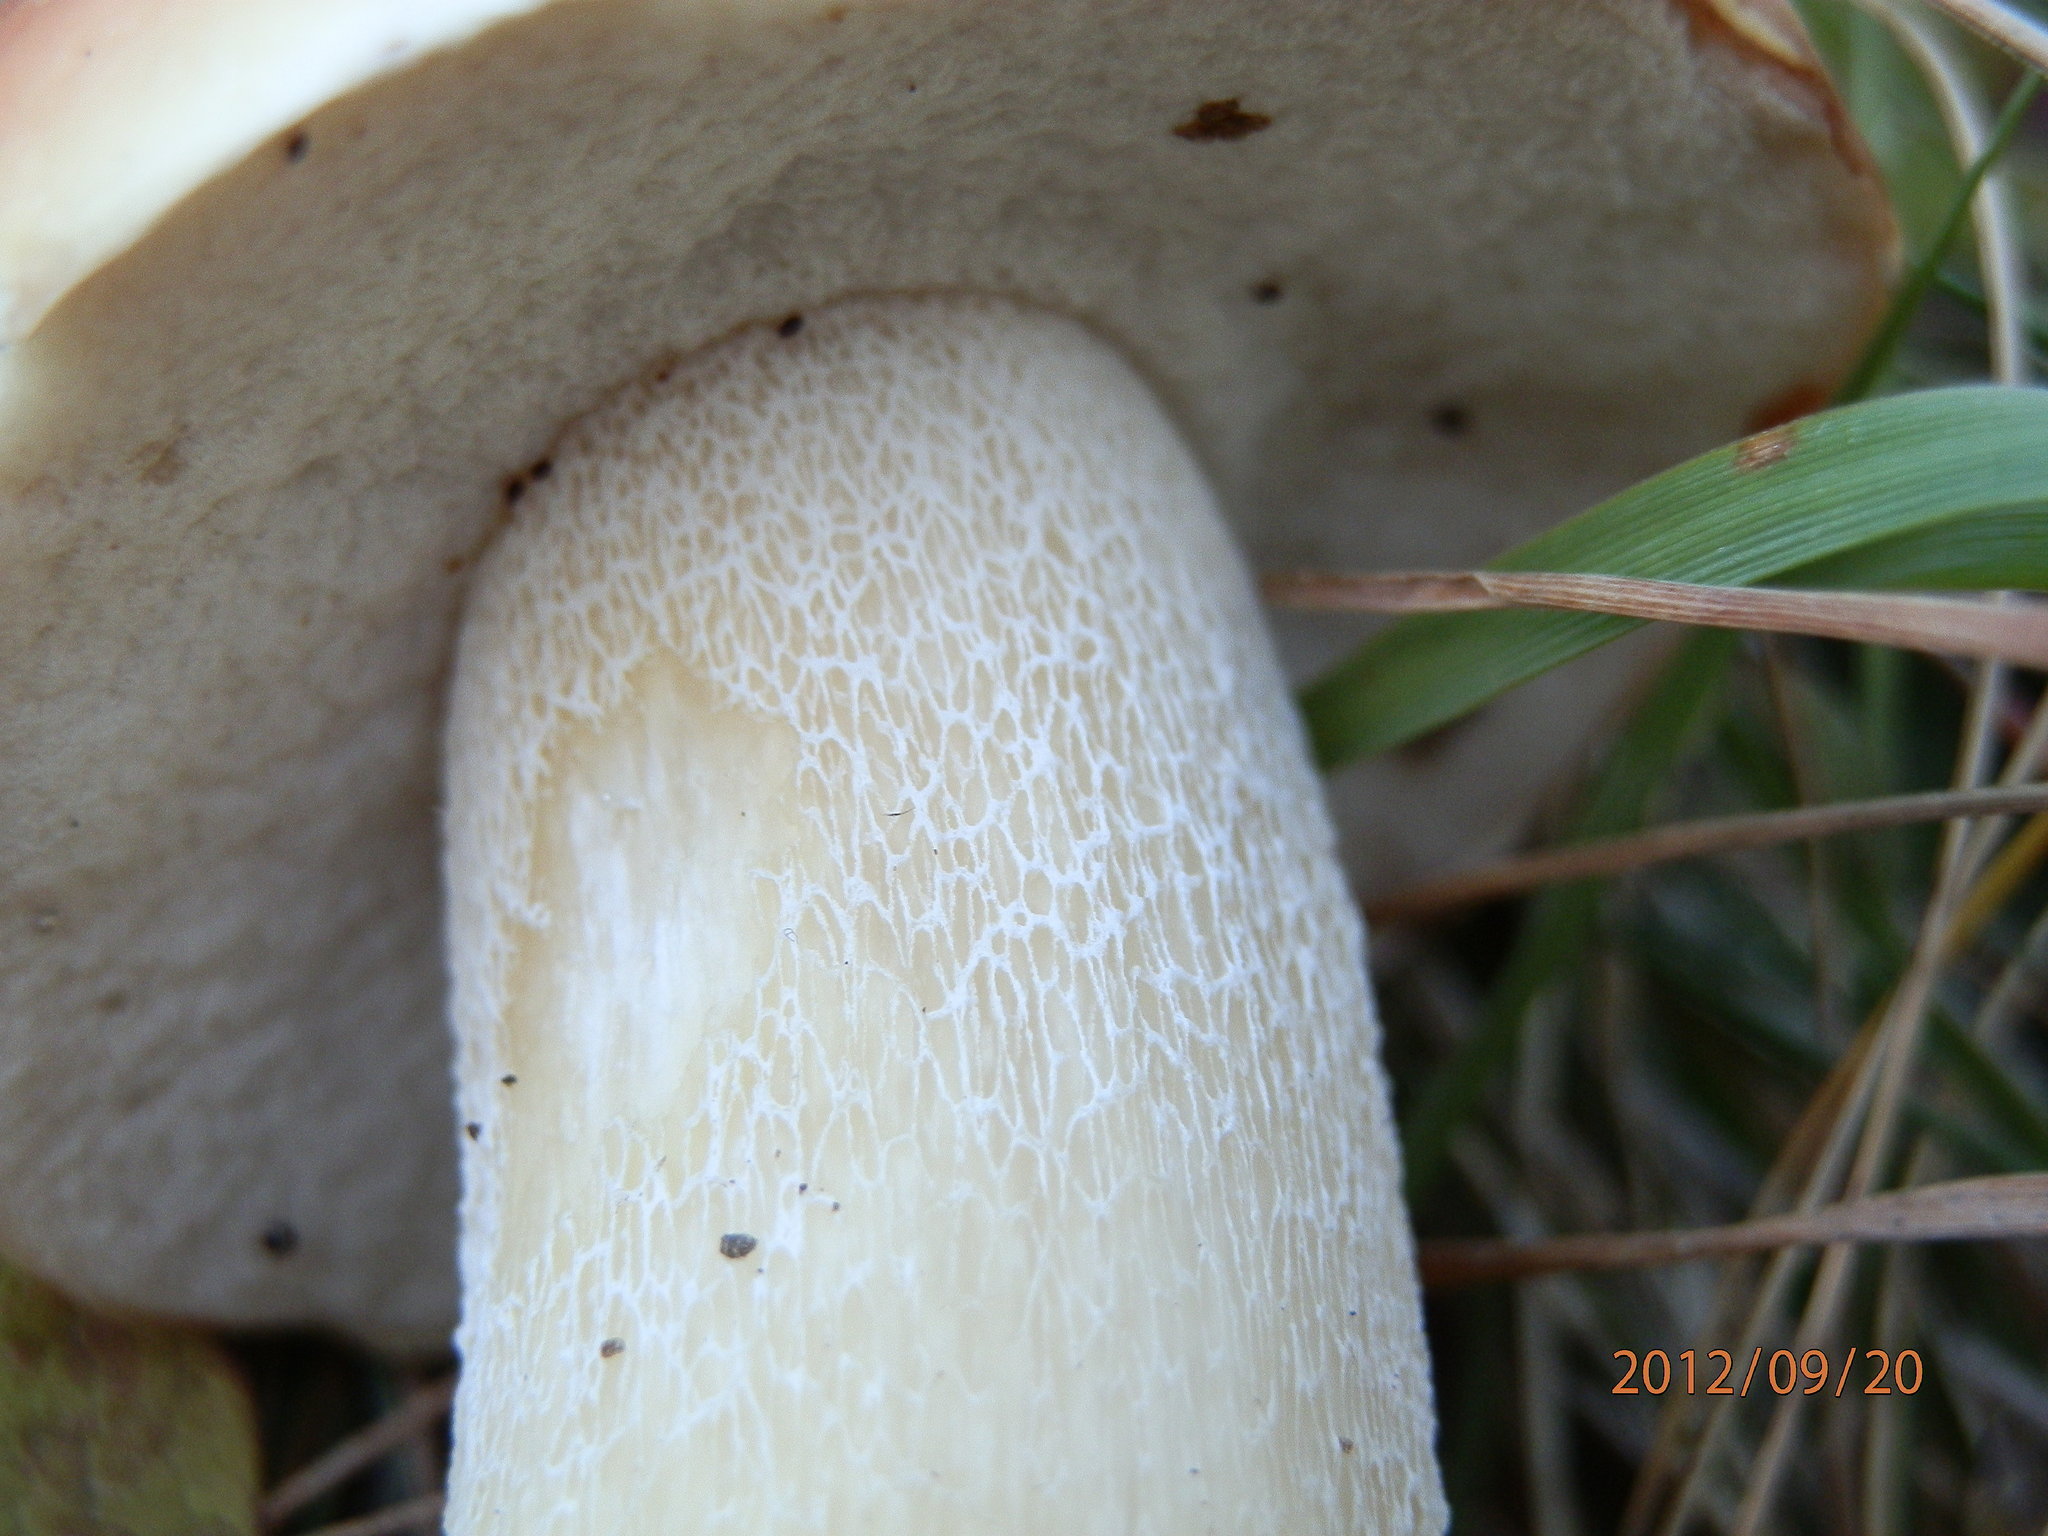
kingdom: Fungi
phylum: Basidiomycota
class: Agaricomycetes
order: Boletales
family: Boletaceae
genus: Boletus
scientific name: Boletus chippewaensis
